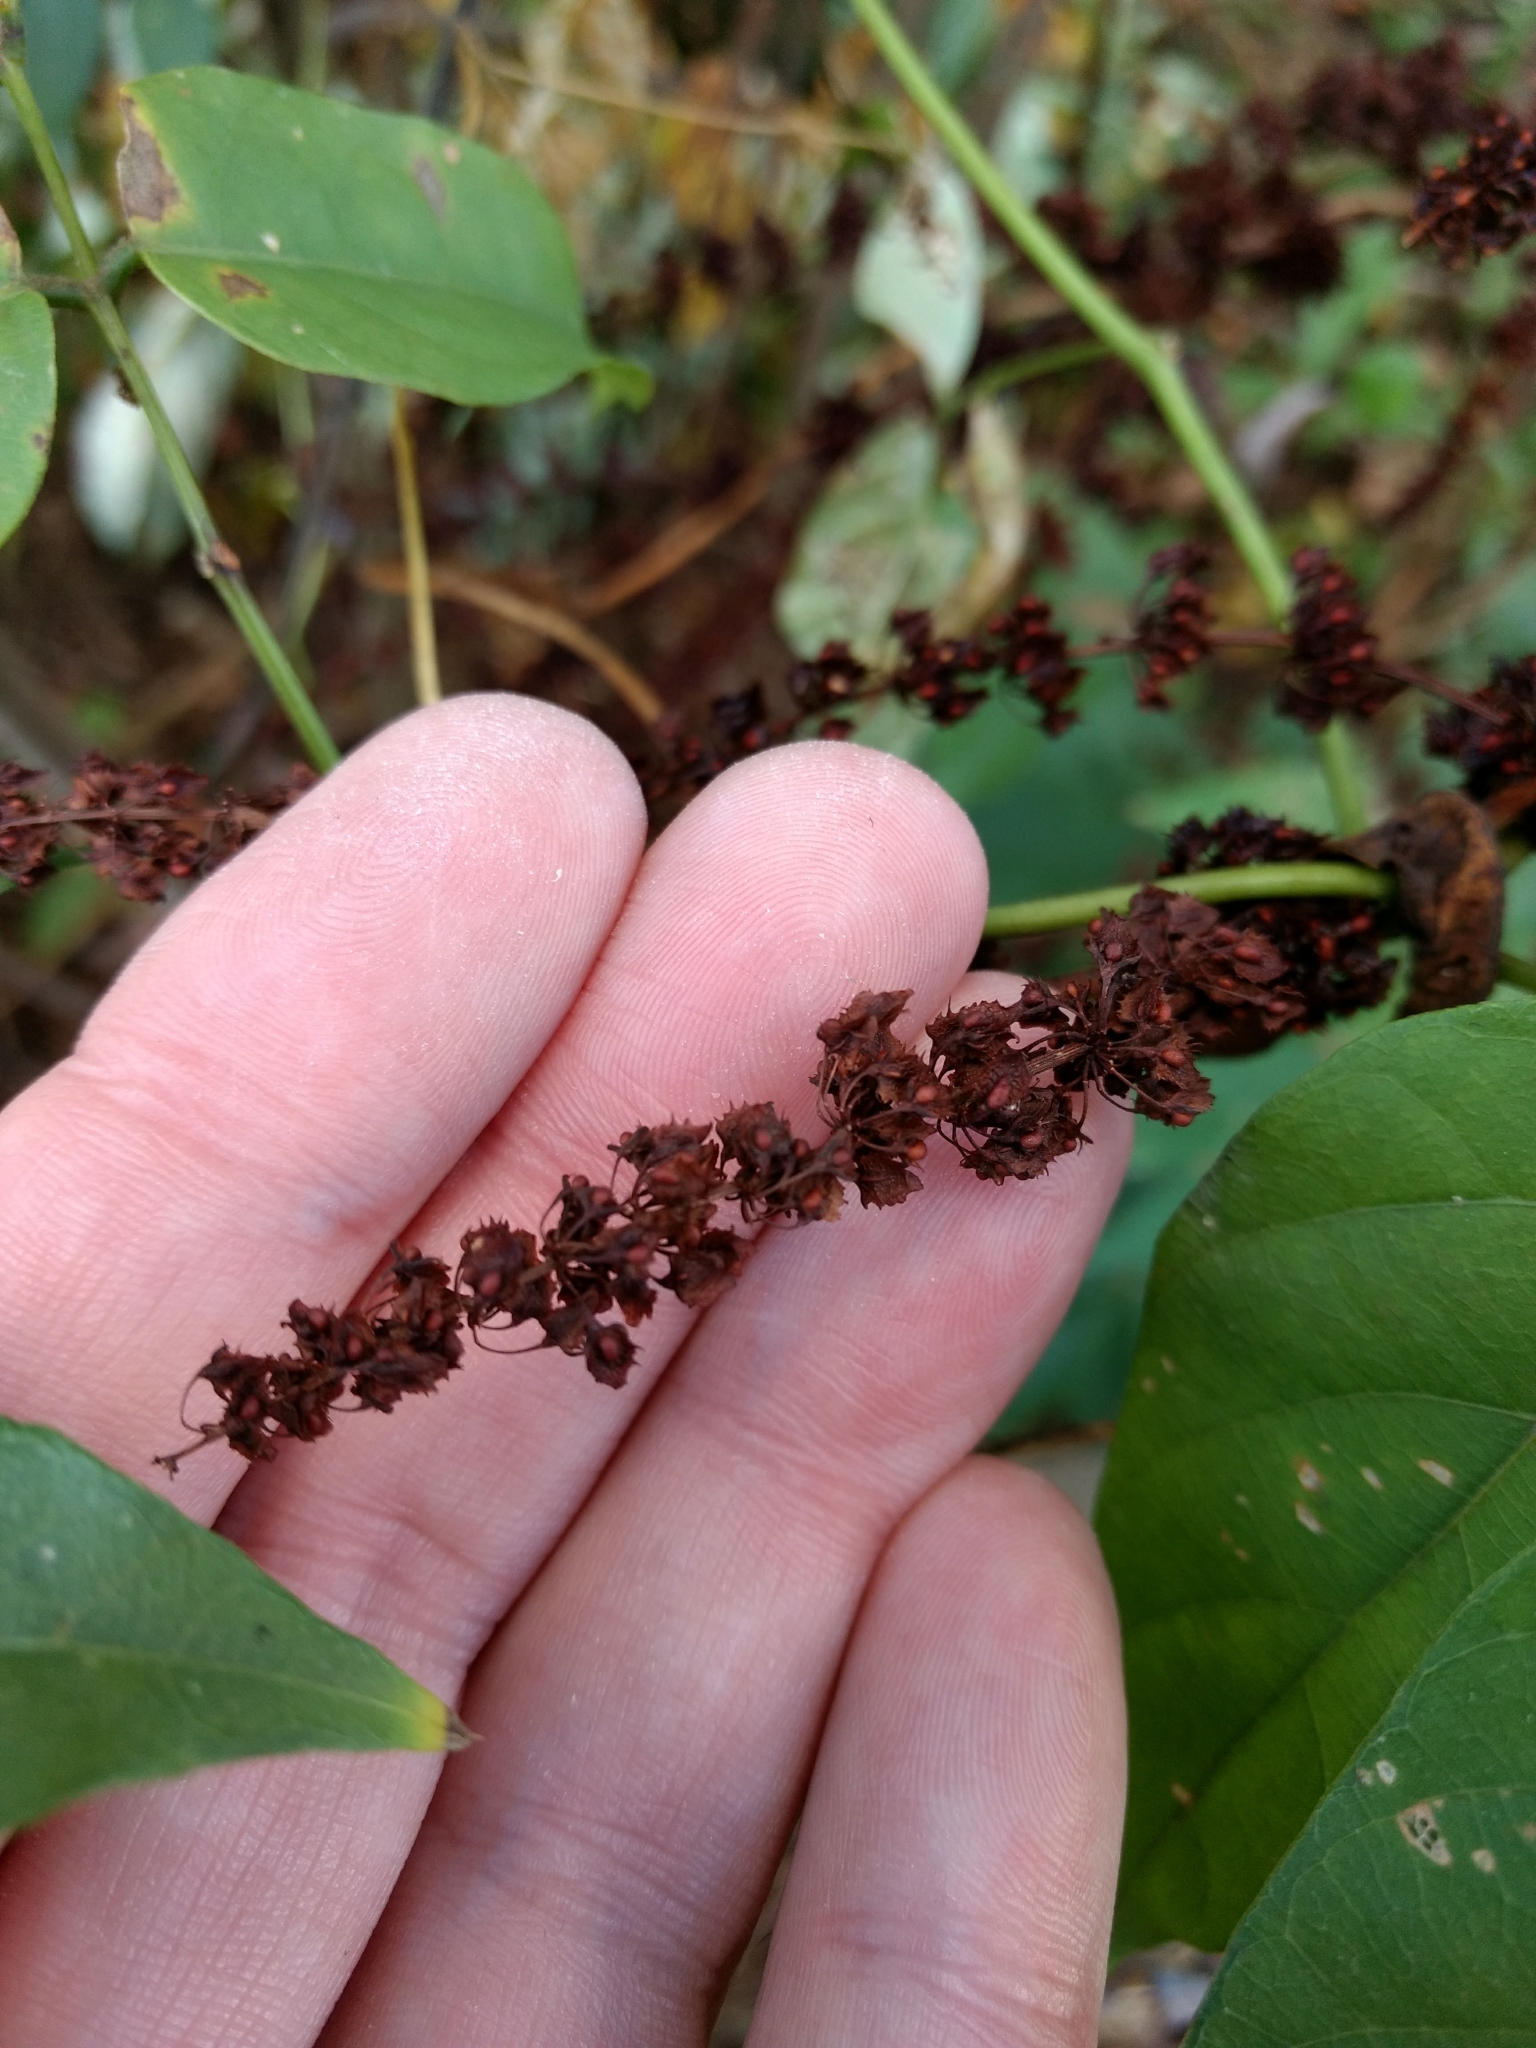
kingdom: Plantae
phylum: Tracheophyta
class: Magnoliopsida
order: Caryophyllales
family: Polygonaceae
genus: Rumex
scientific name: Rumex obtusifolius
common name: Bitter dock
